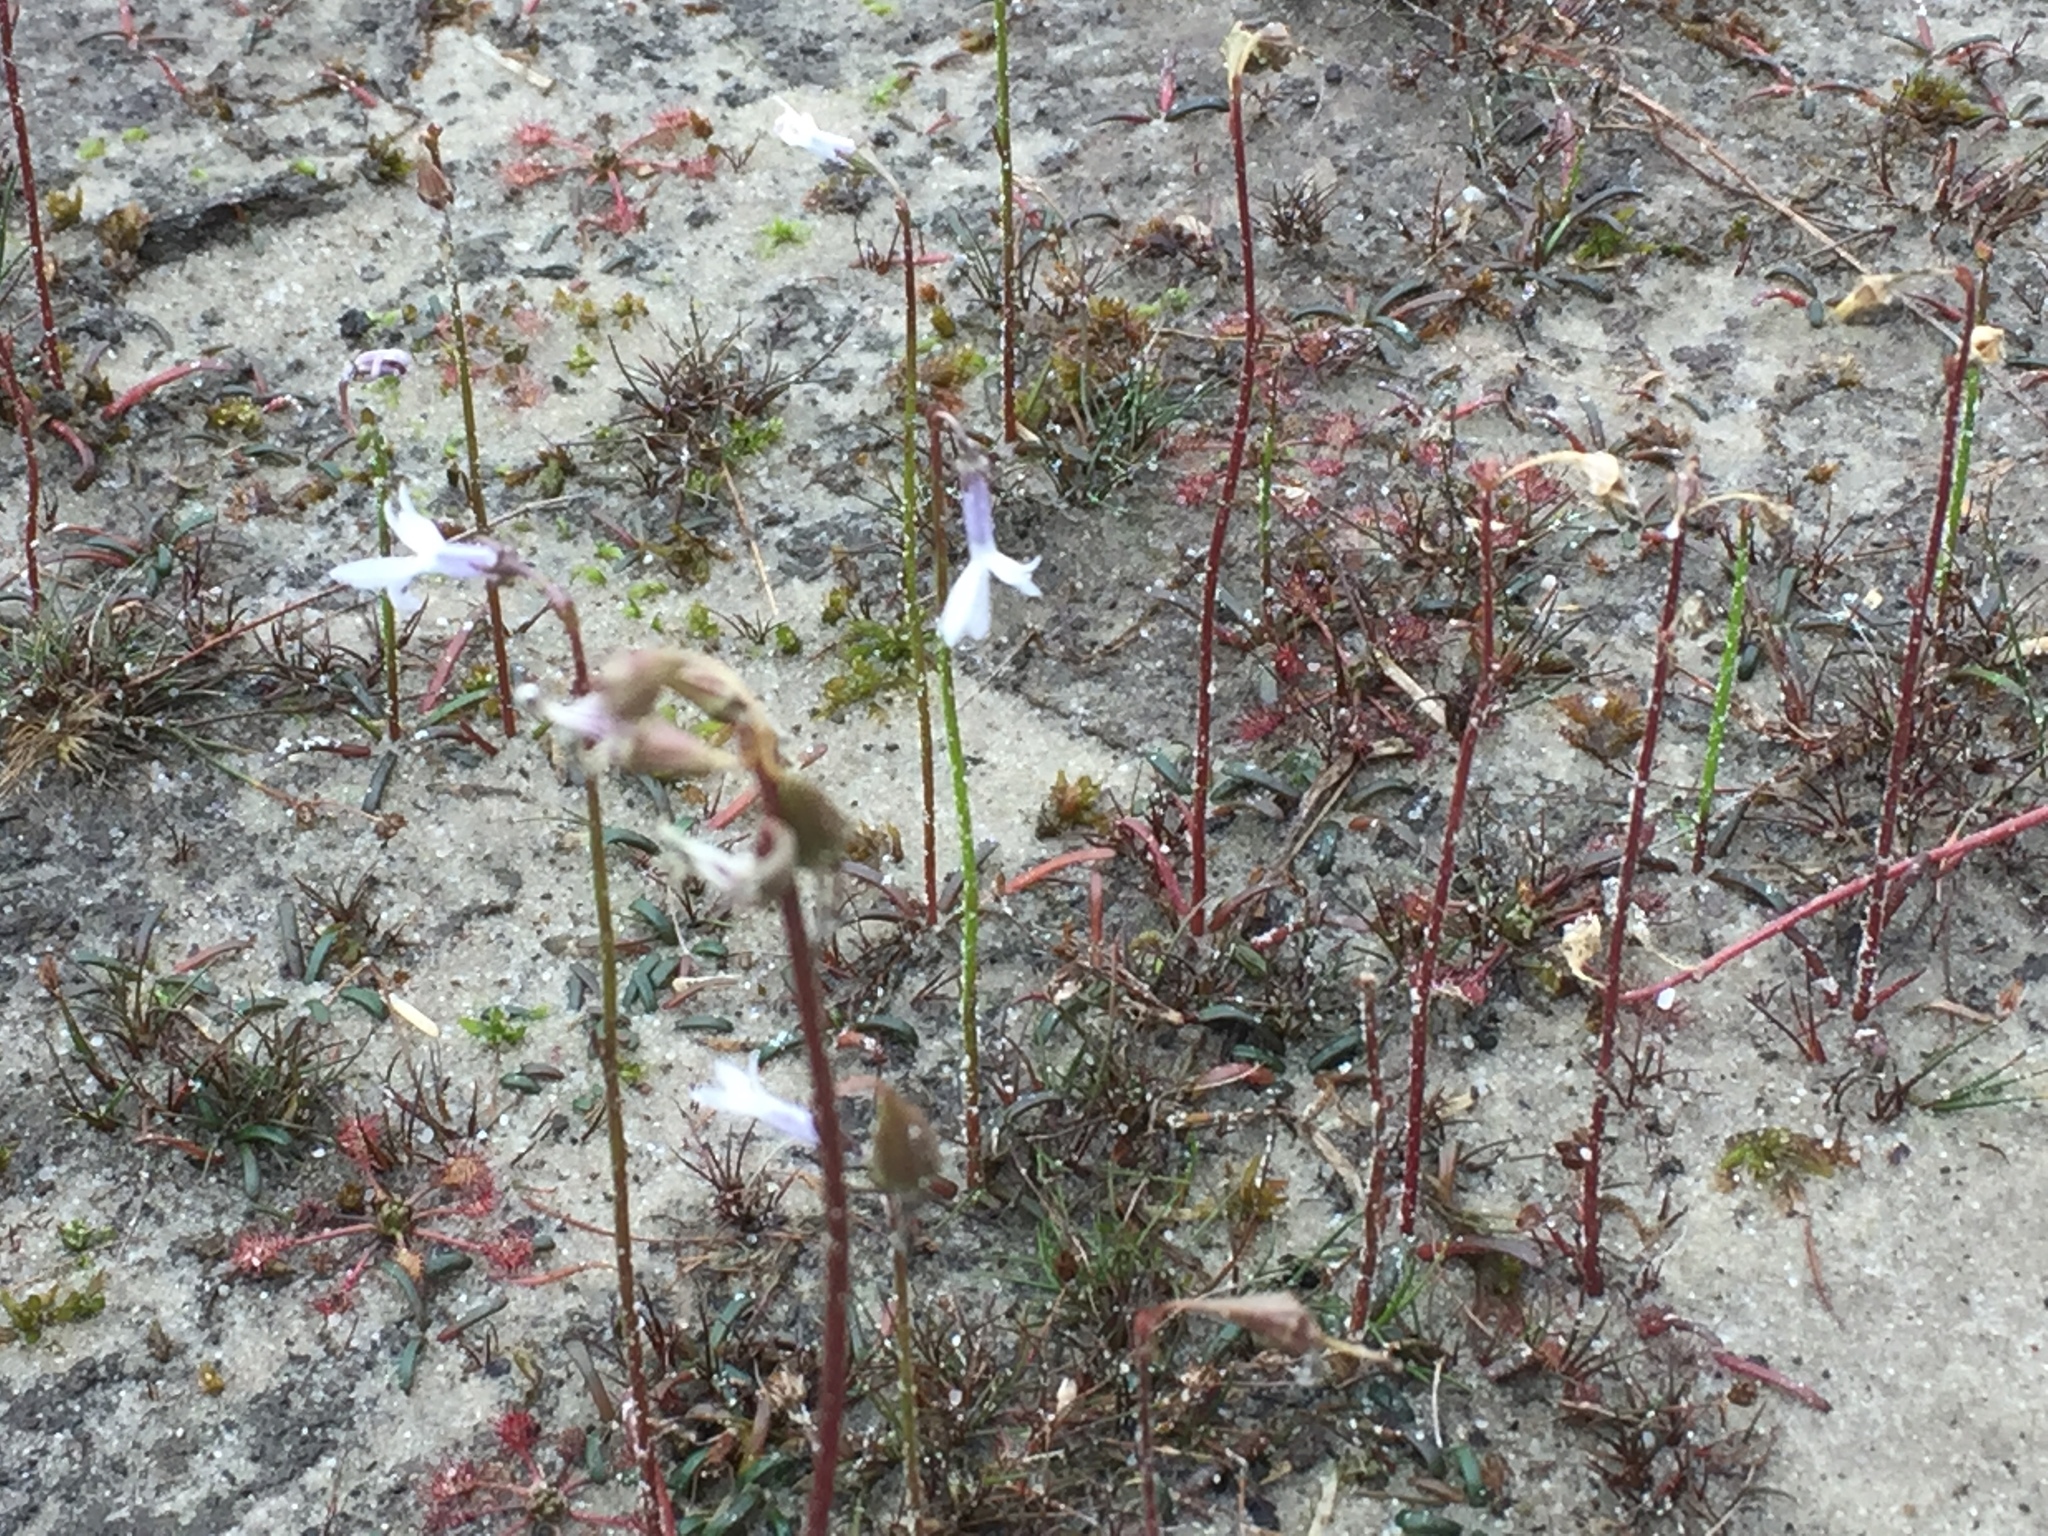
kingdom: Plantae
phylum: Tracheophyta
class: Magnoliopsida
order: Asterales
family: Campanulaceae
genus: Lobelia
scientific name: Lobelia dortmanna
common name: Water lobelia
